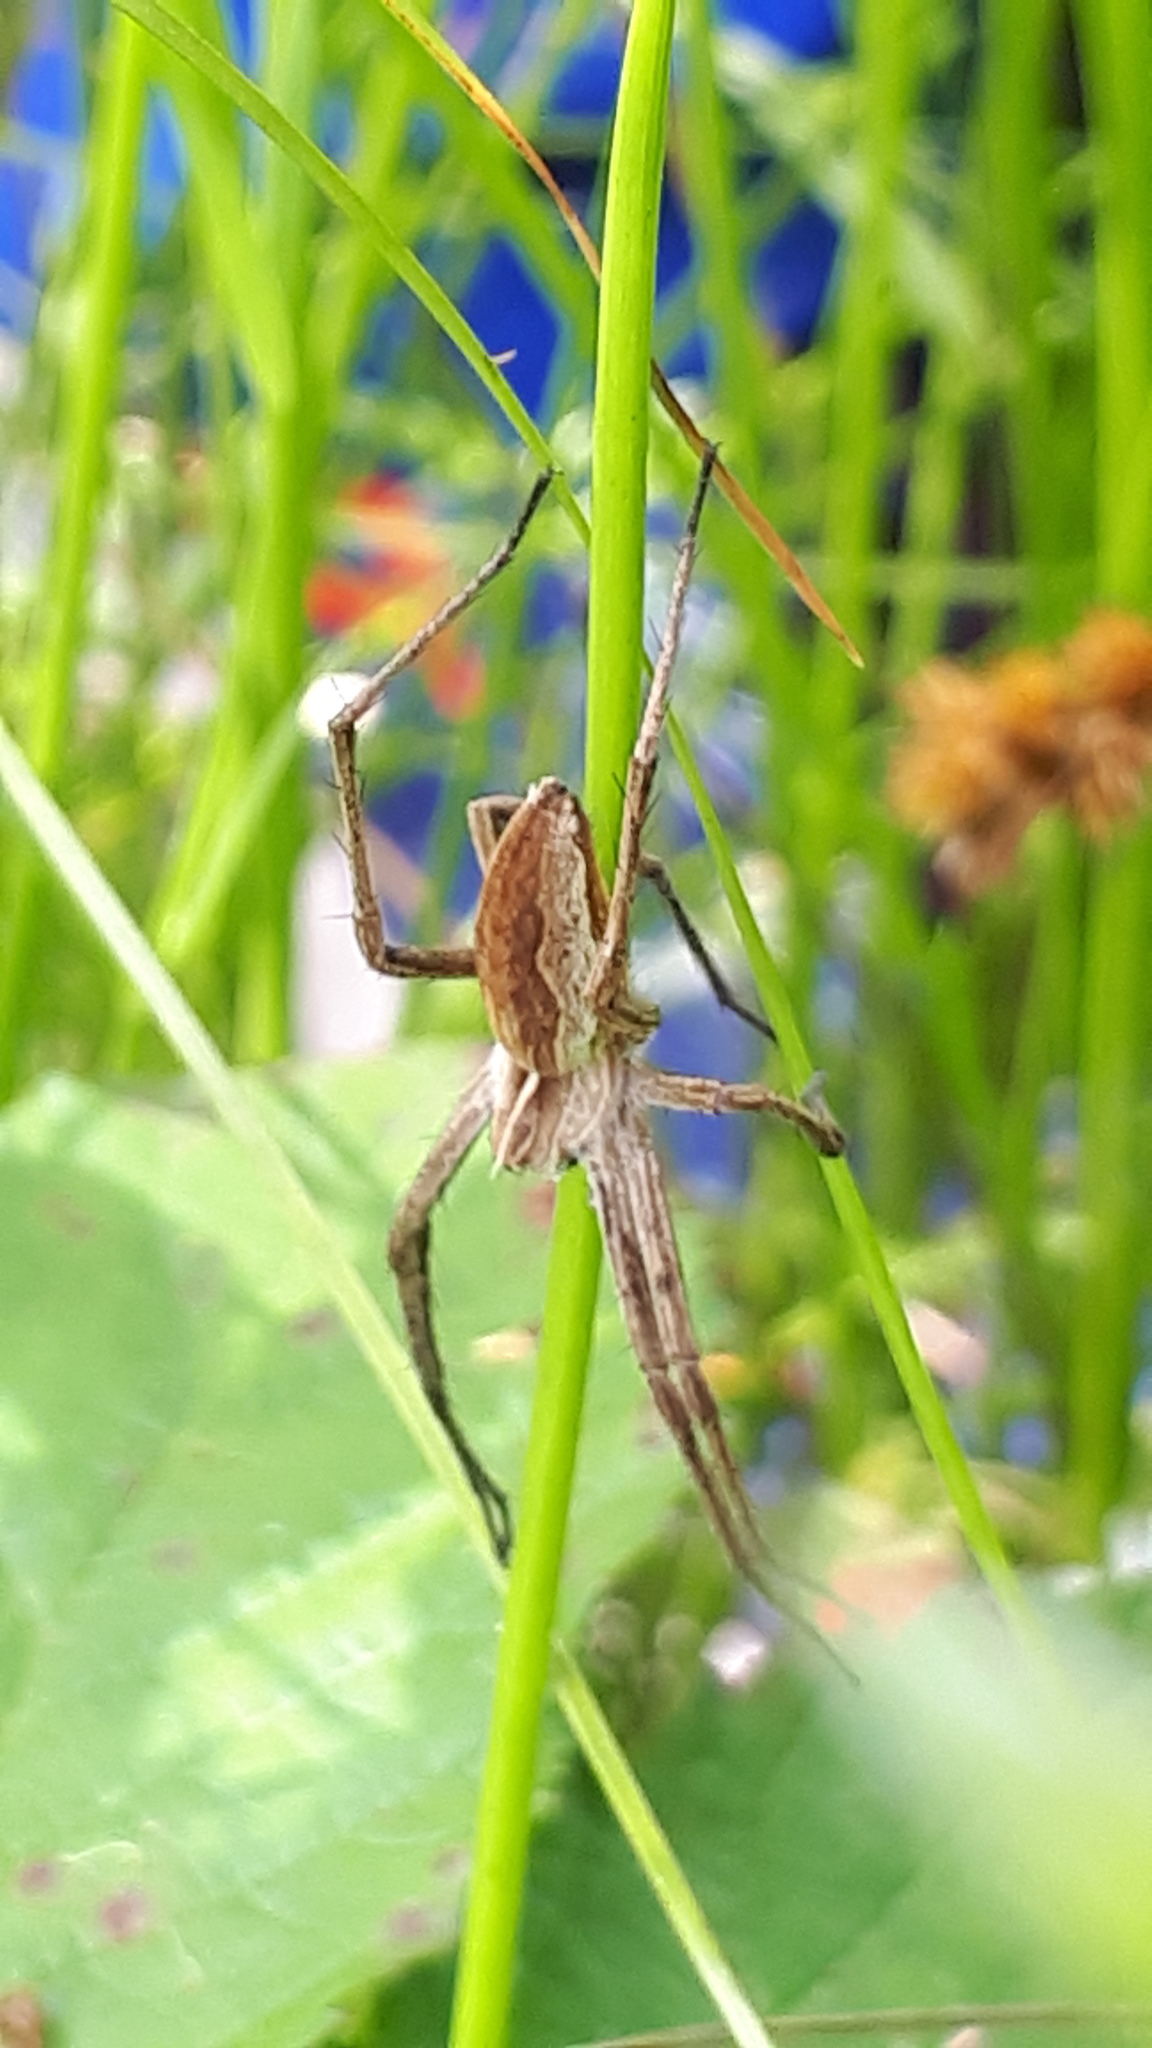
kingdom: Animalia
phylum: Arthropoda
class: Arachnida
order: Araneae
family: Pisauridae
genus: Pisaura
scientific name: Pisaura mirabilis
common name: Tent spider
